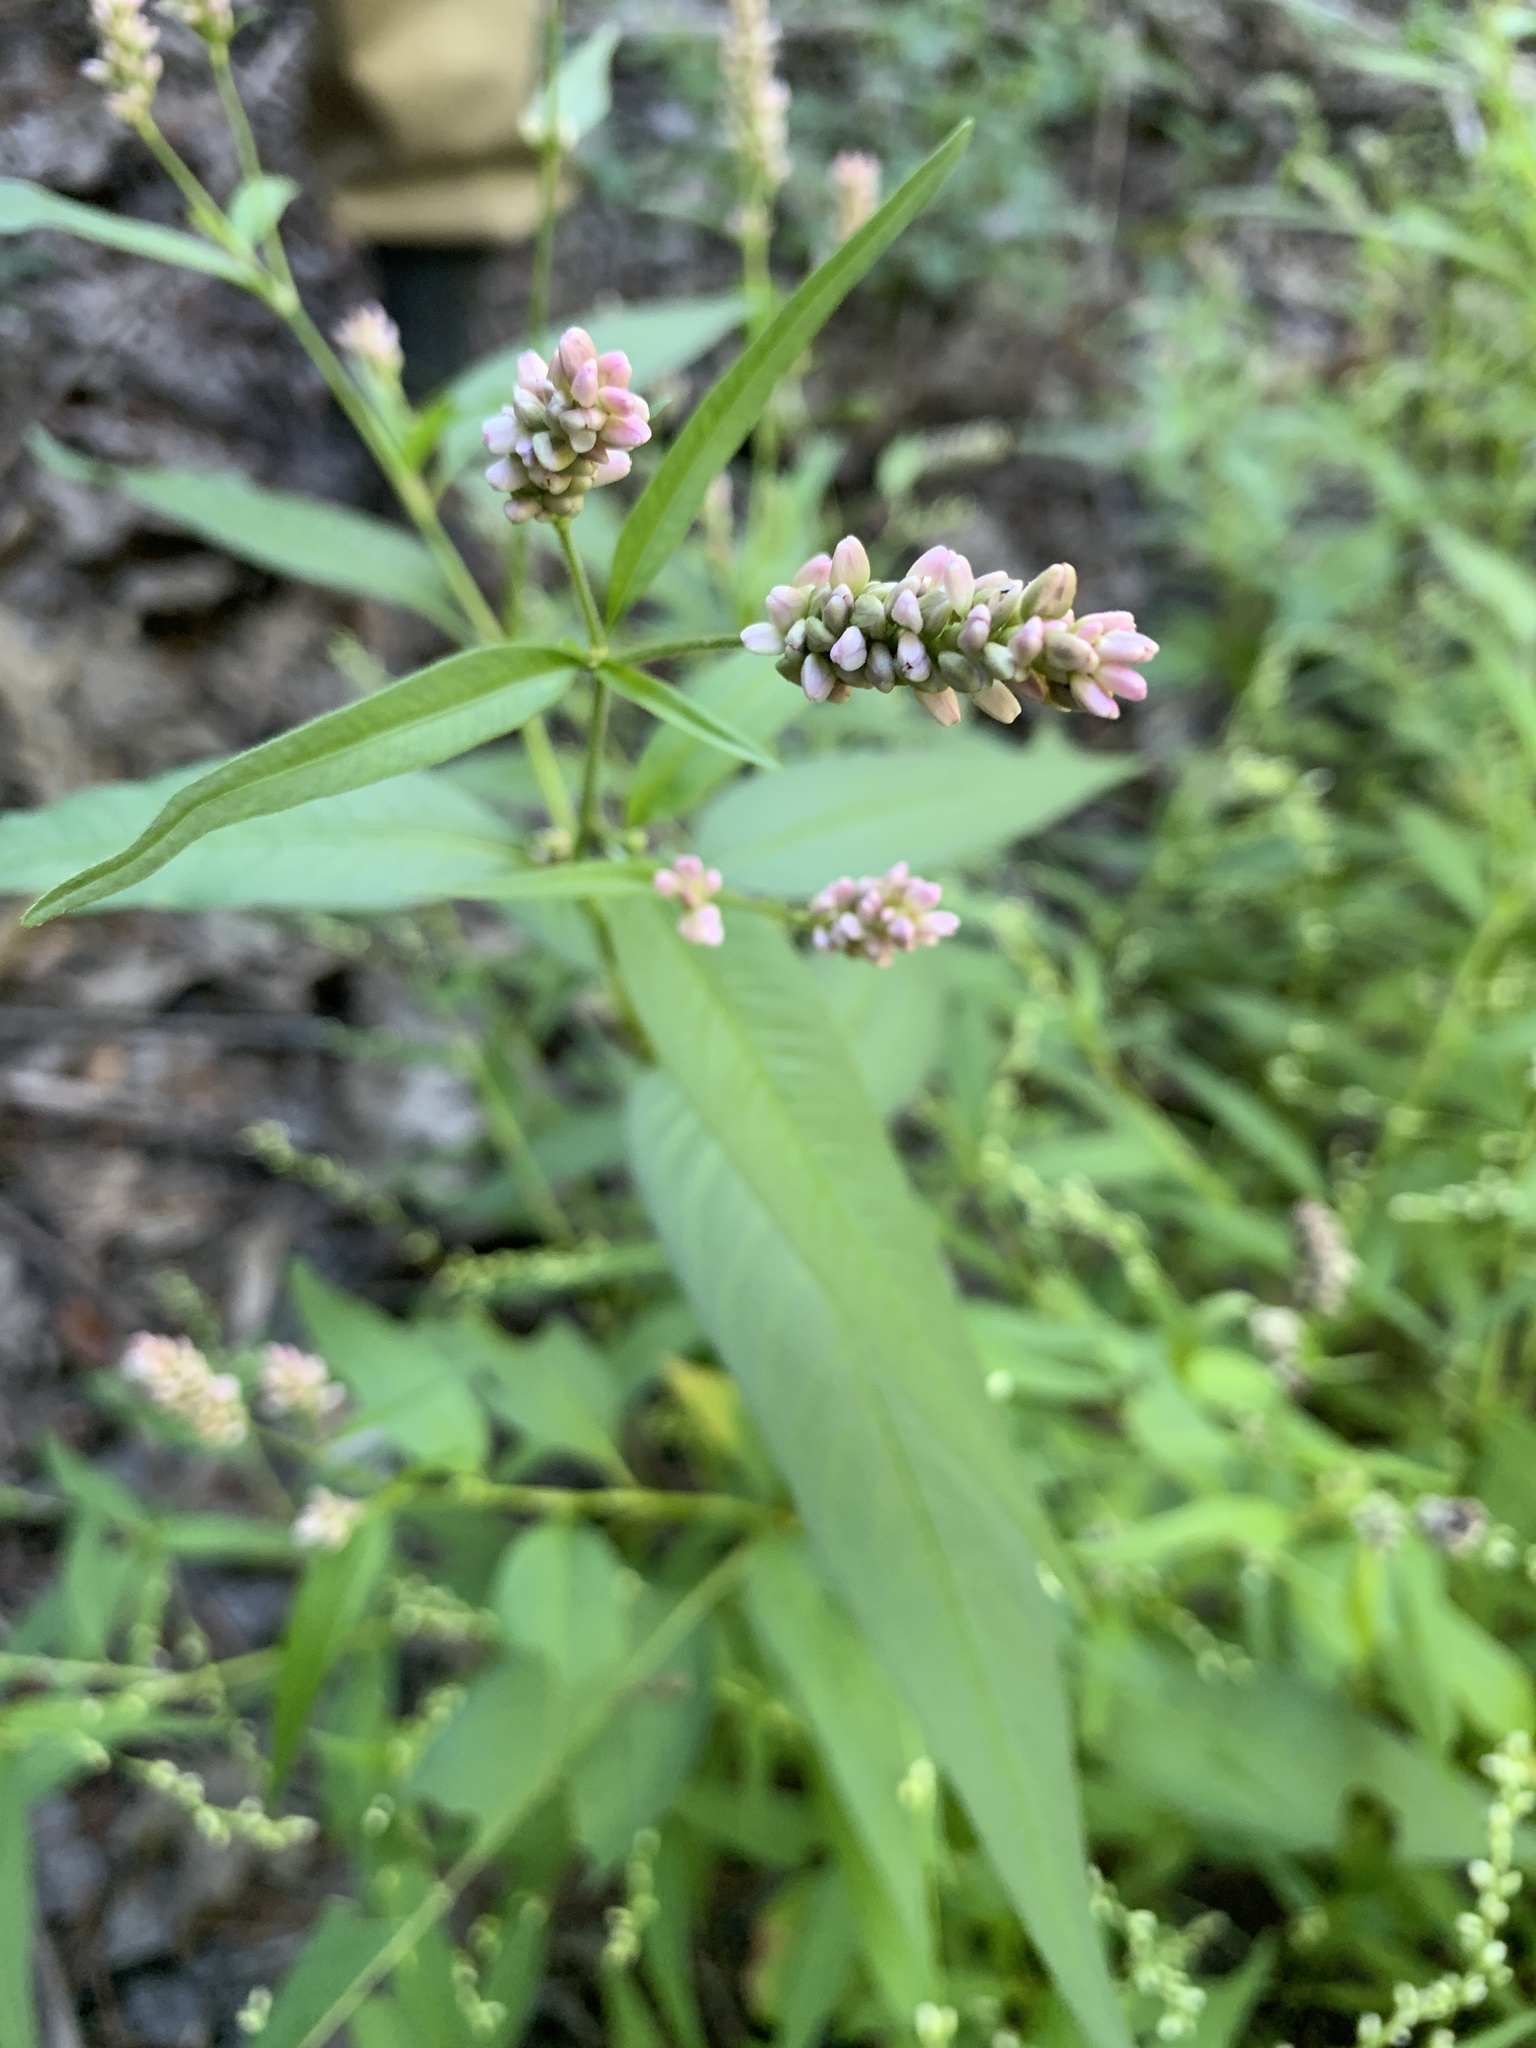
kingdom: Plantae
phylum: Tracheophyta
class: Magnoliopsida
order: Caryophyllales
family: Polygonaceae
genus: Persicaria
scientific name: Persicaria pensylvanica
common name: Pinkweed
